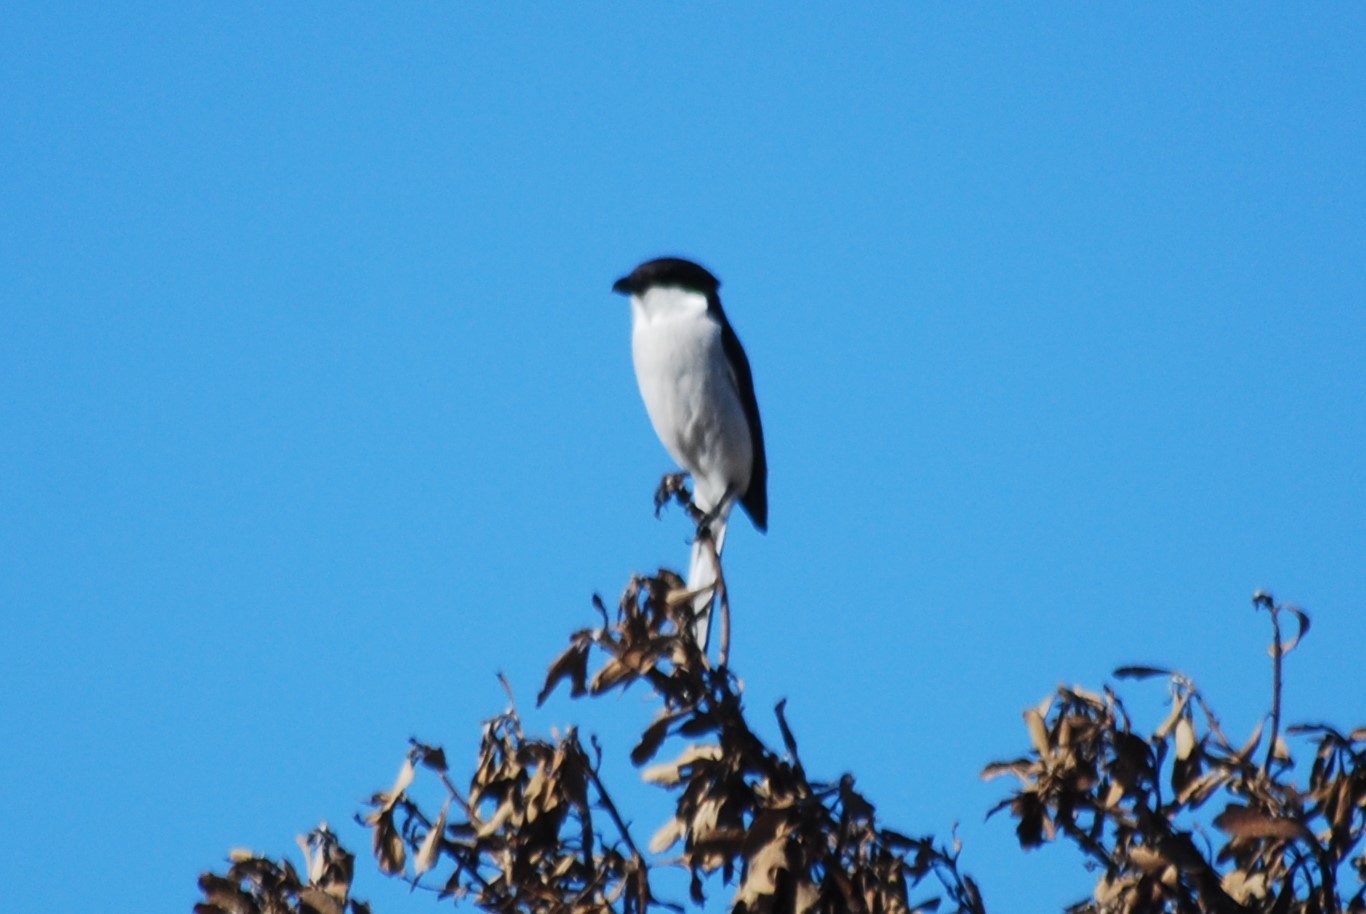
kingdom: Animalia
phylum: Chordata
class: Aves
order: Passeriformes
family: Laniidae
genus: Lanius
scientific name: Lanius collaris
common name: Southern fiscal
